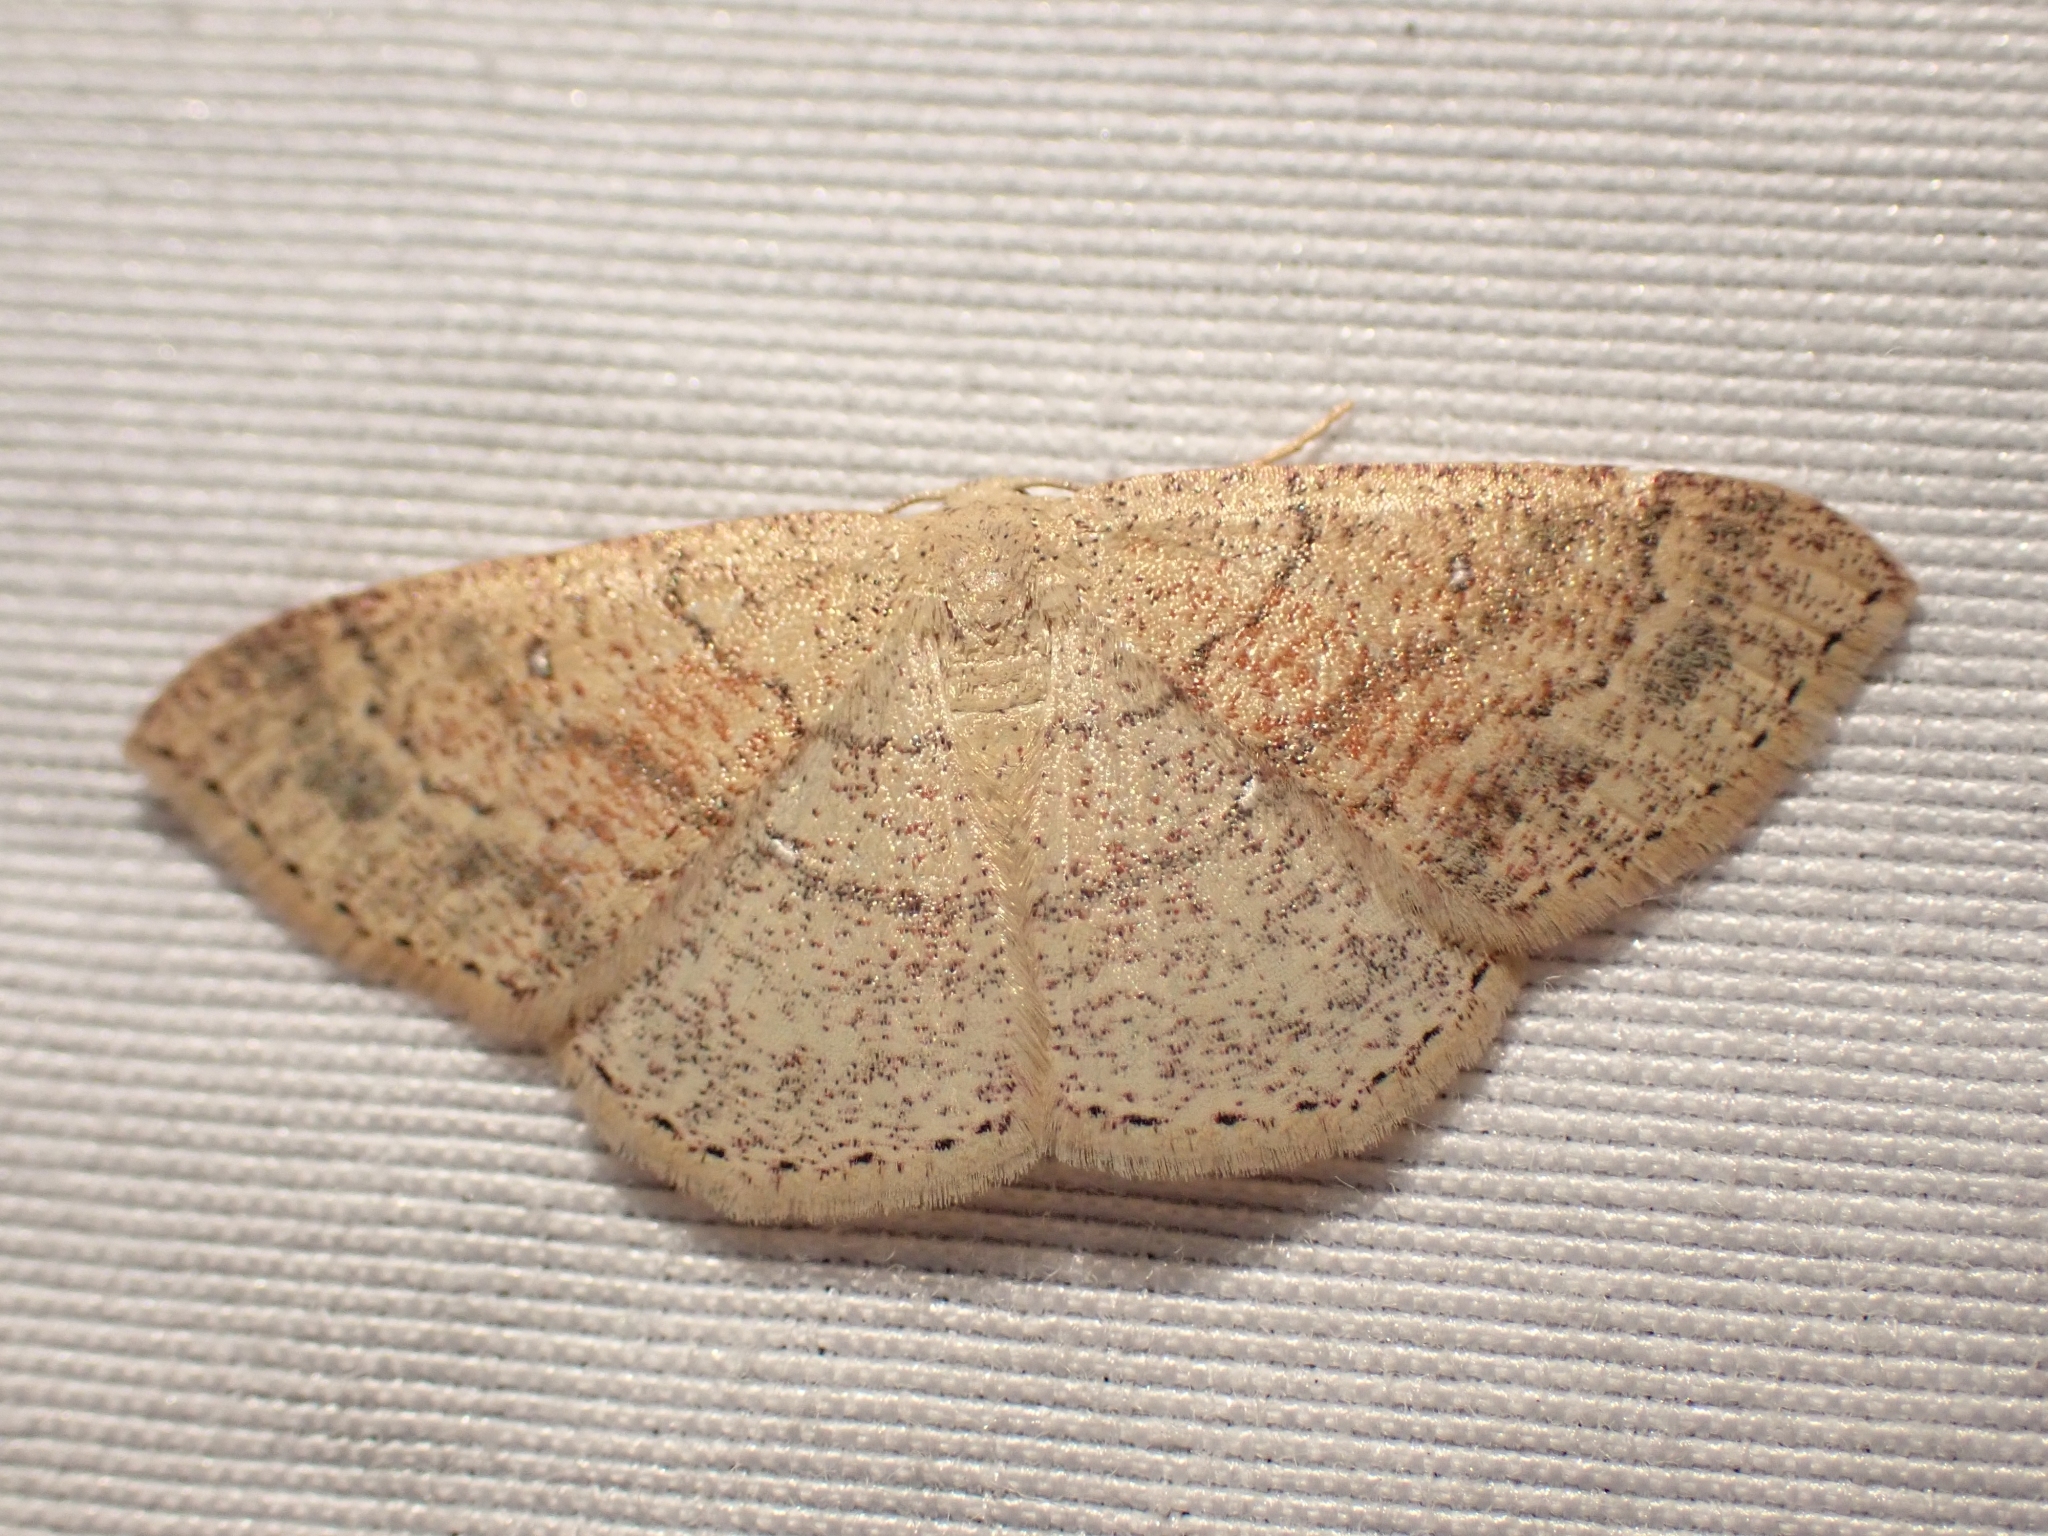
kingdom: Animalia
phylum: Arthropoda
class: Insecta
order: Lepidoptera
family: Geometridae
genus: Cyclophora
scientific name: Cyclophora dataria
